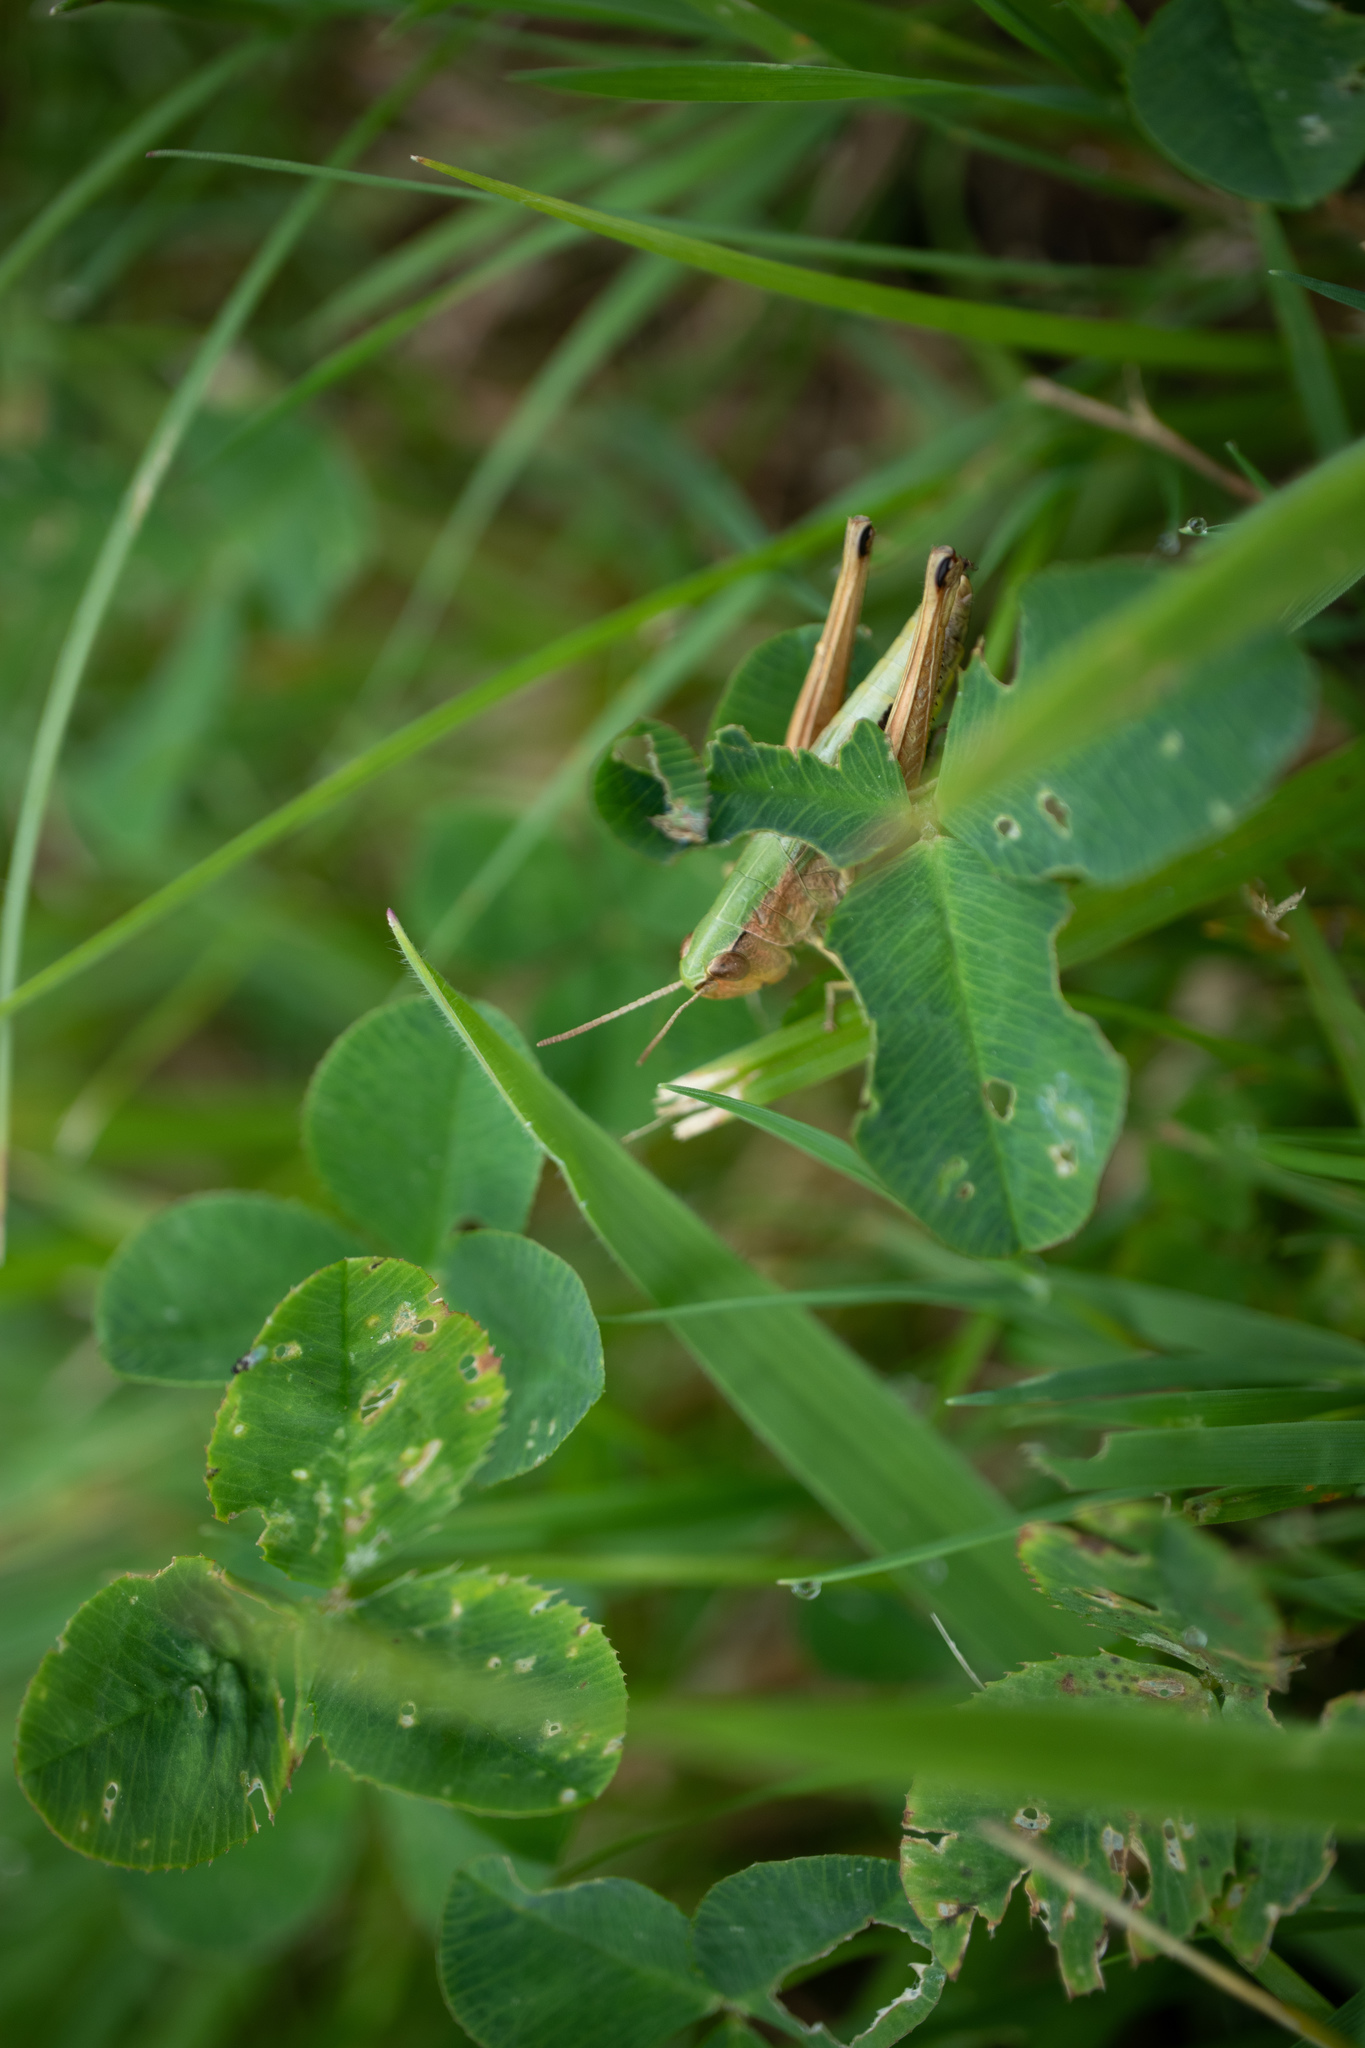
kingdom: Animalia
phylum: Arthropoda
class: Insecta
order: Orthoptera
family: Acrididae
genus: Pseudochorthippus
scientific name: Pseudochorthippus parallelus
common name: Meadow grasshopper
